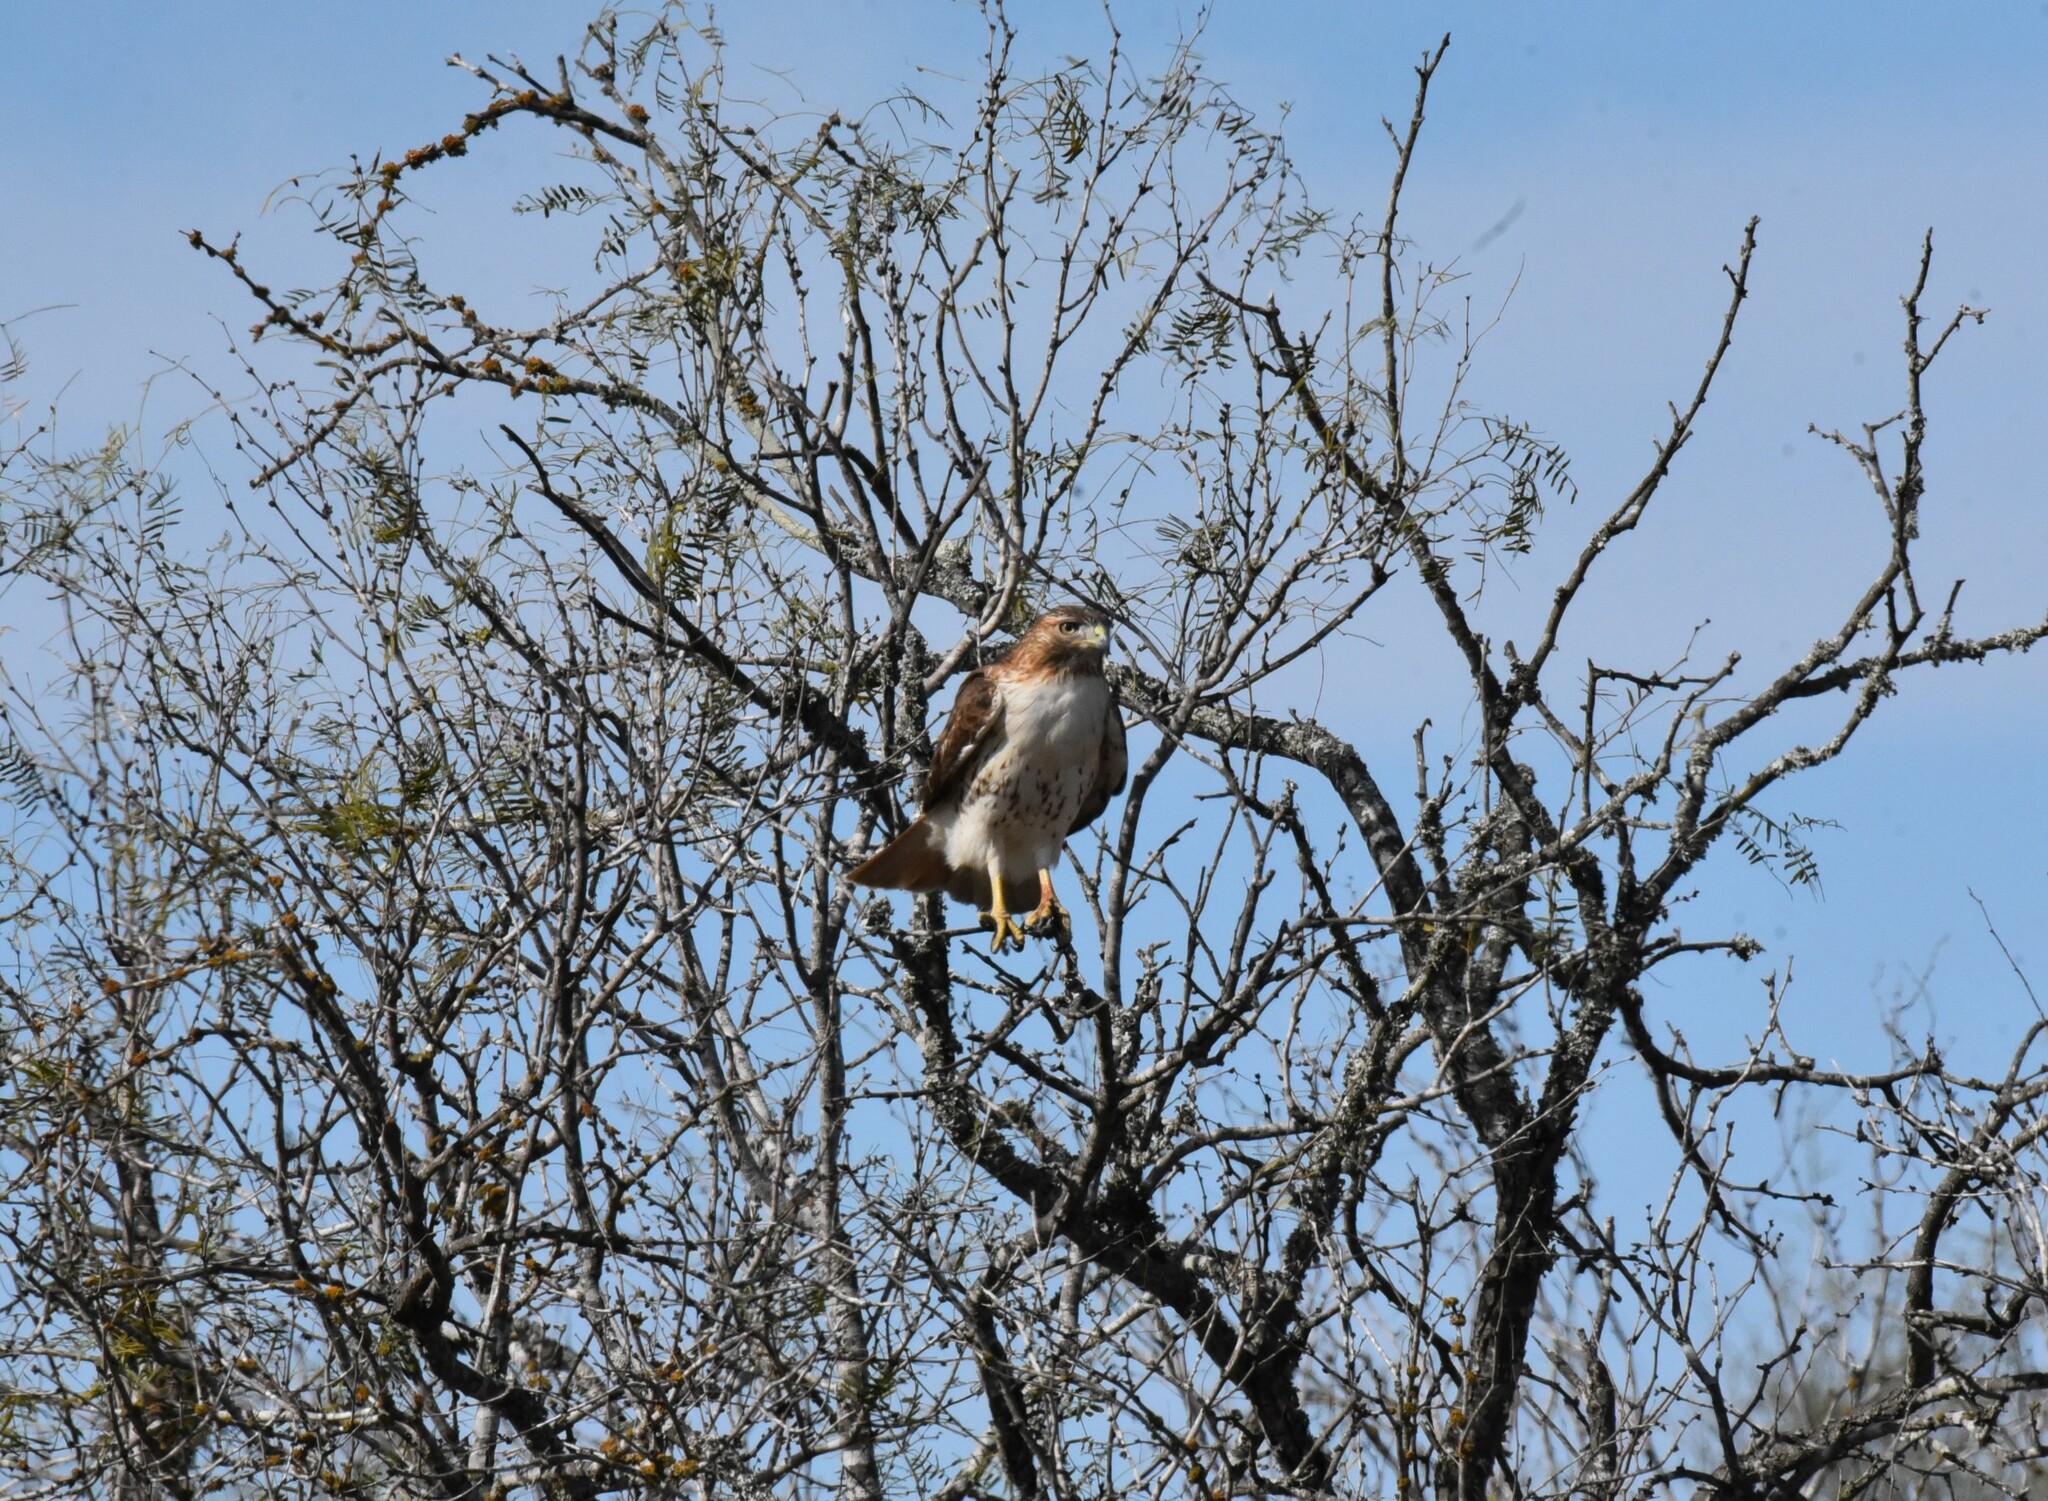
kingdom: Animalia
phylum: Chordata
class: Aves
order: Accipitriformes
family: Accipitridae
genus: Buteo
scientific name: Buteo jamaicensis
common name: Red-tailed hawk
